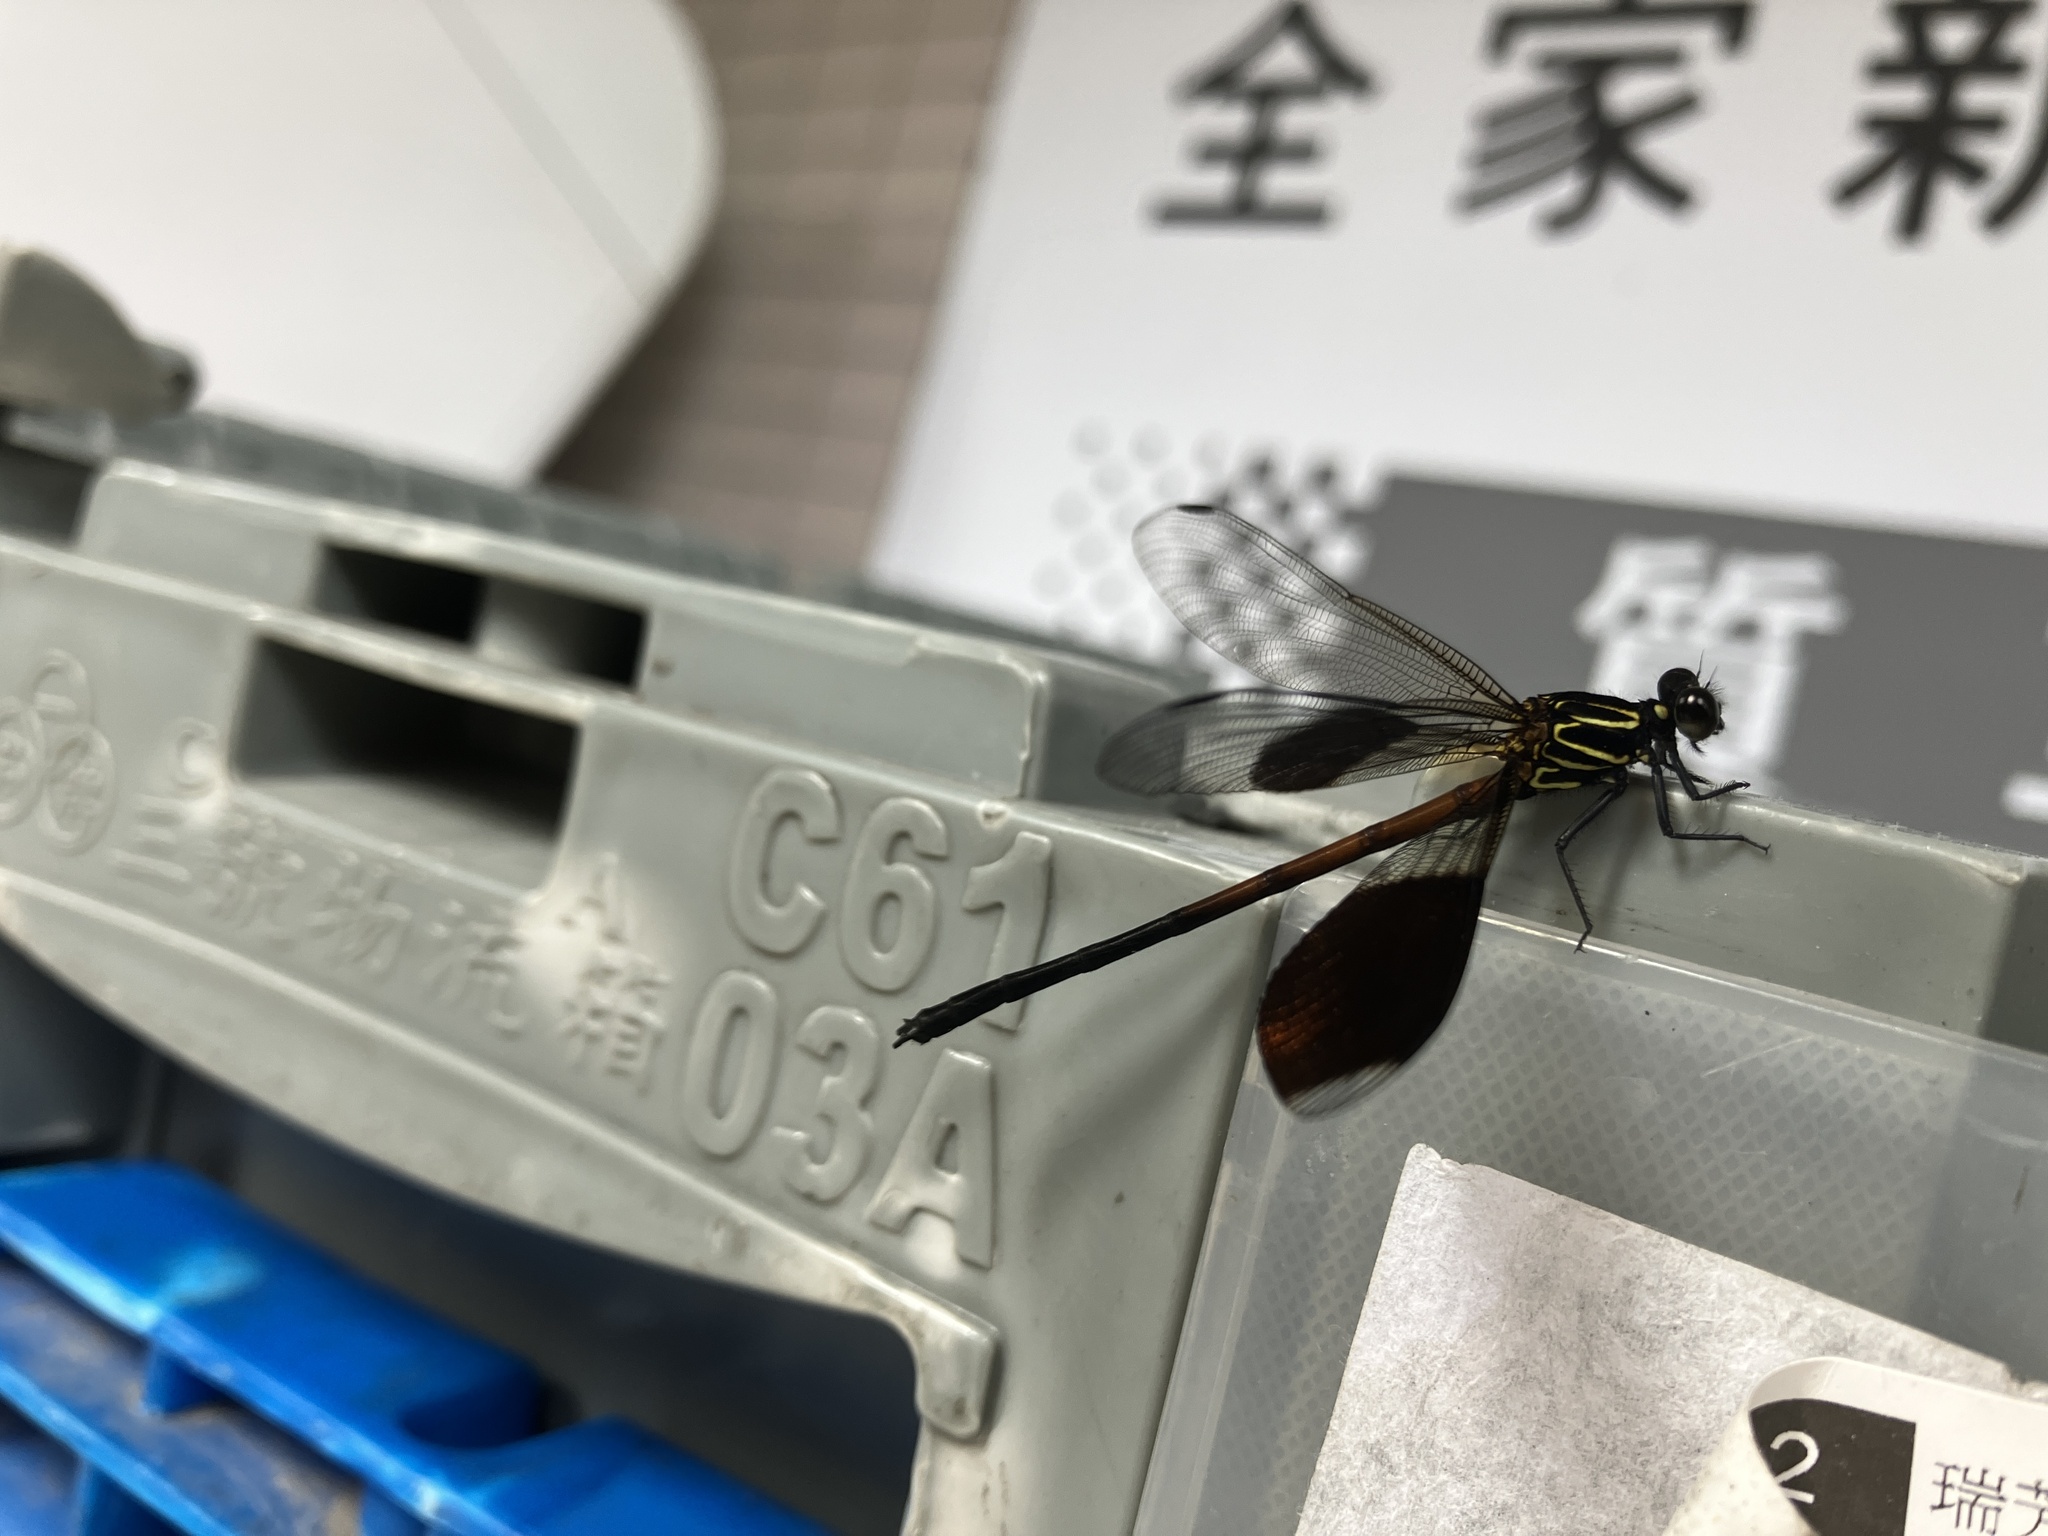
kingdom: Animalia
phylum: Arthropoda
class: Insecta
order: Odonata
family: Euphaeidae
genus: Euphaea
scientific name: Euphaea formosa
